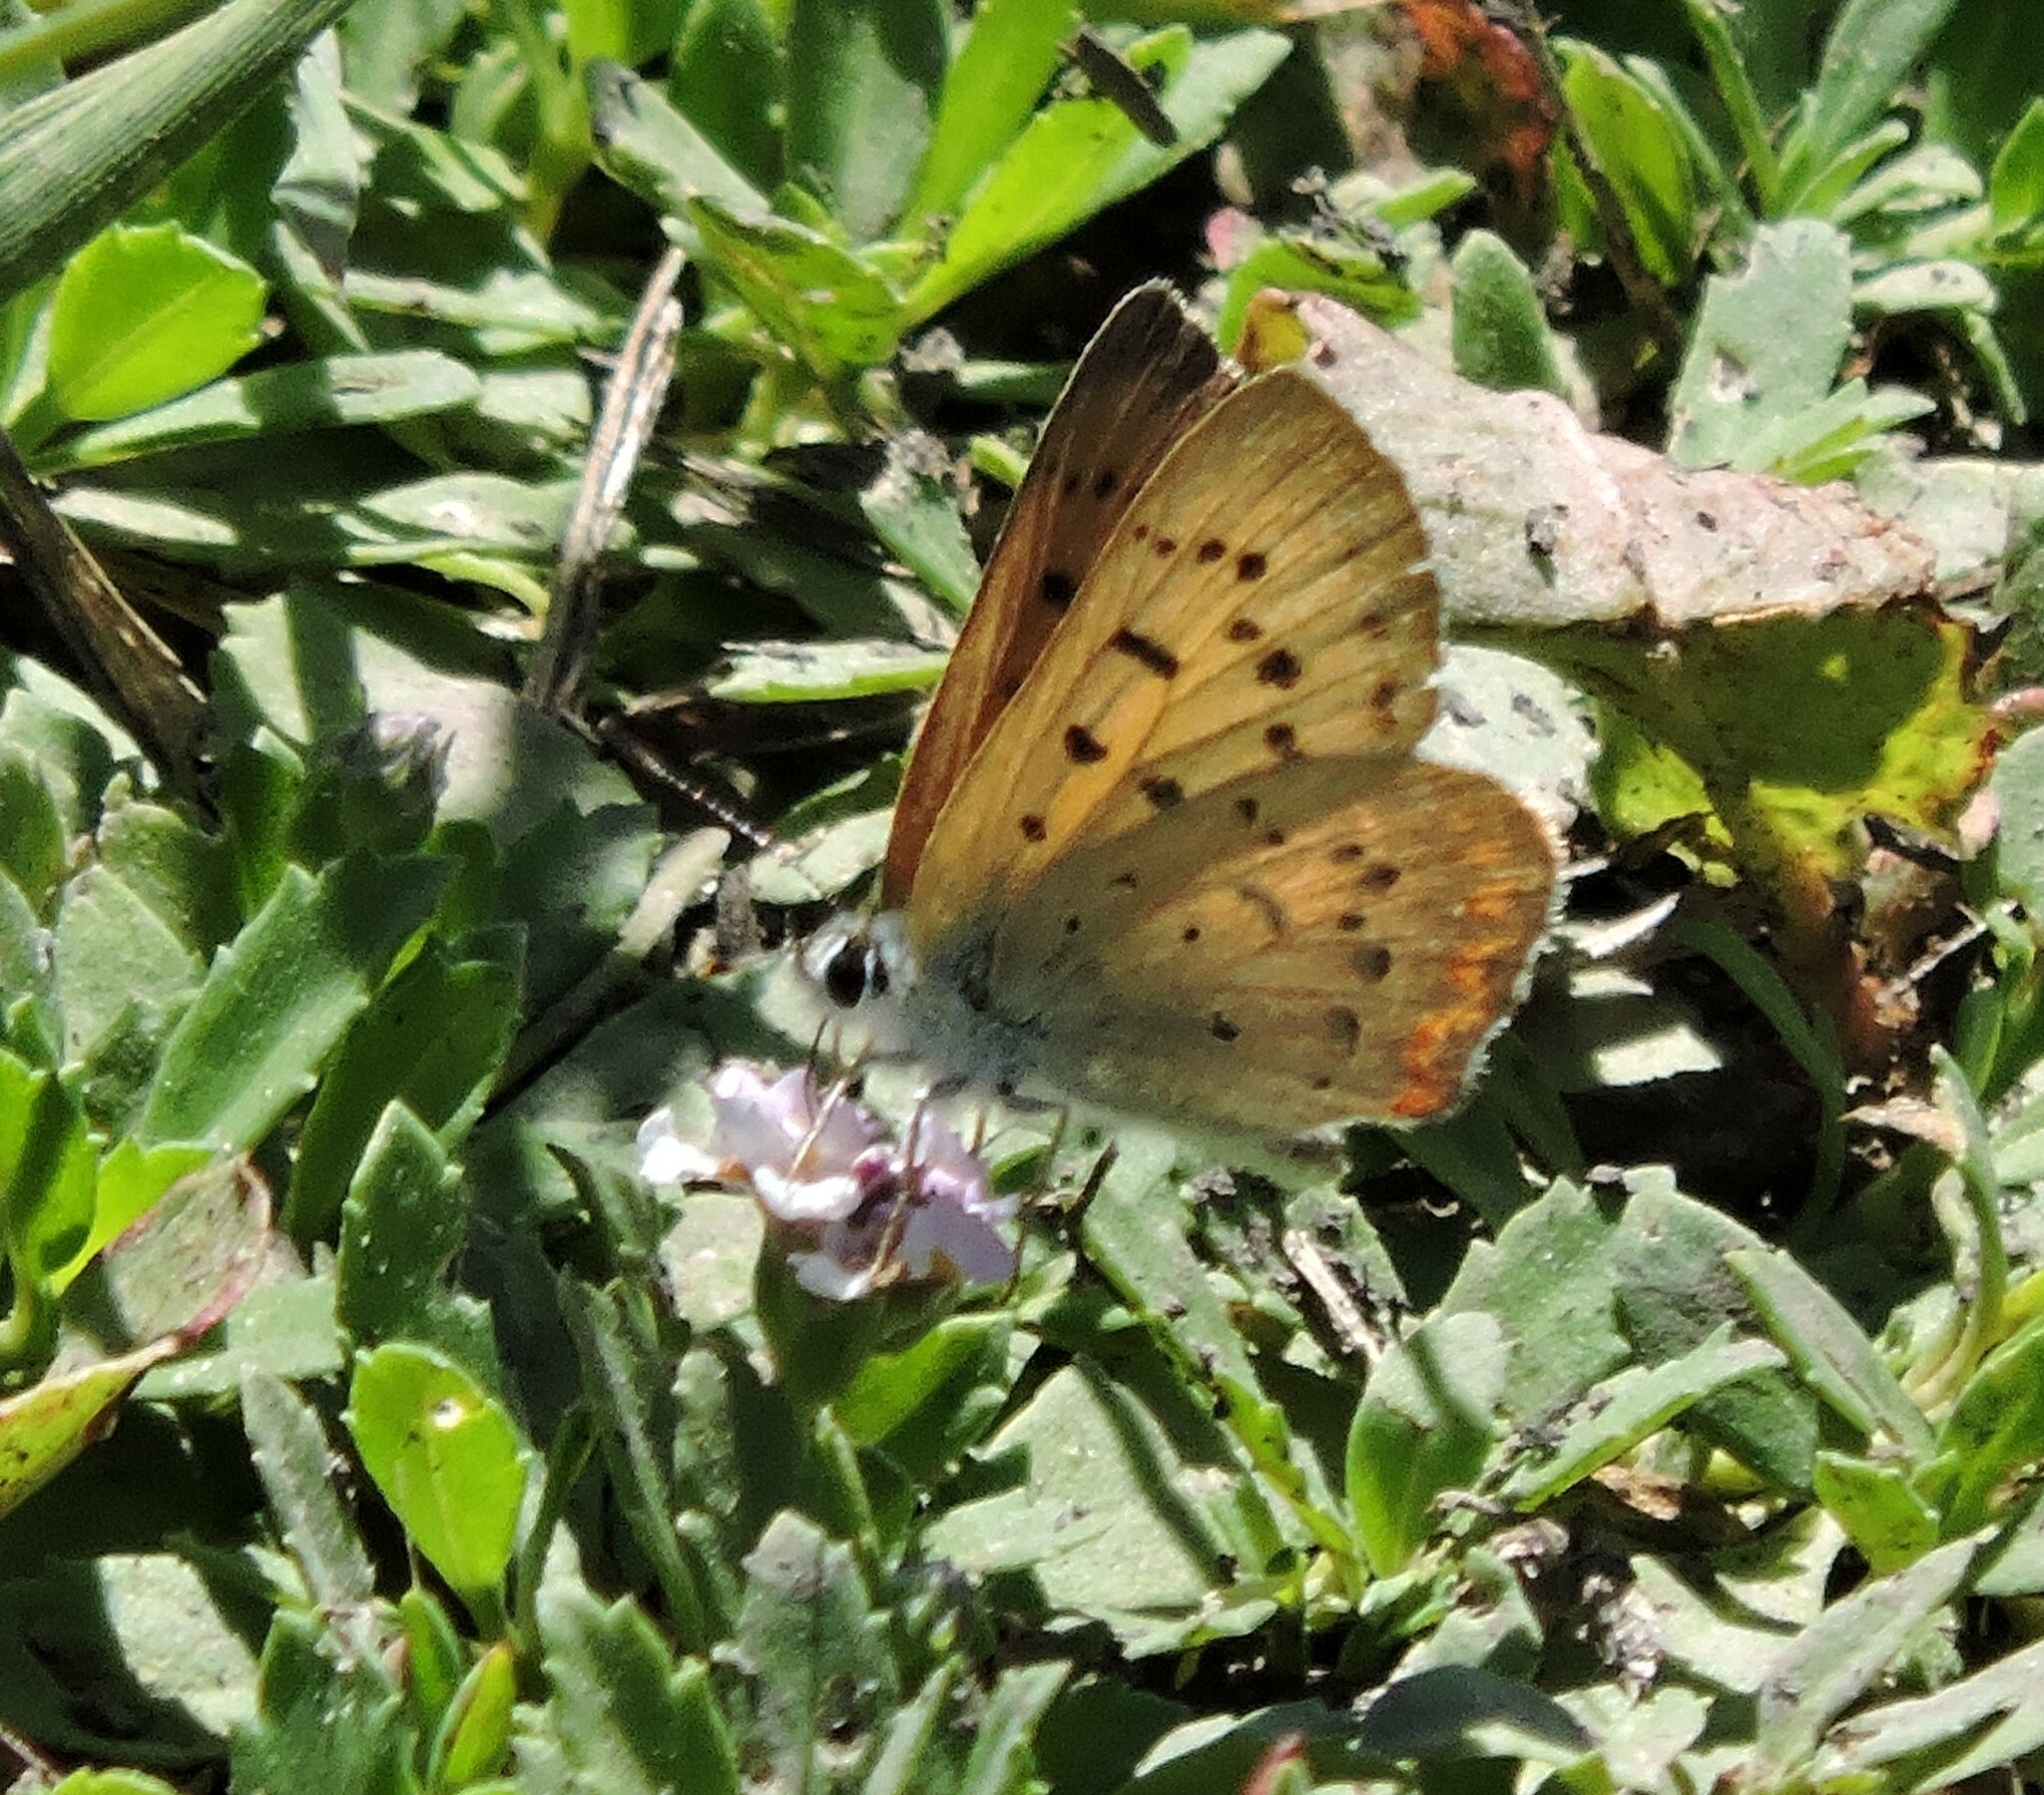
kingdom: Animalia
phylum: Arthropoda
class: Insecta
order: Lepidoptera
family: Lycaenidae
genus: Tharsalea
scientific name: Tharsalea helloides
